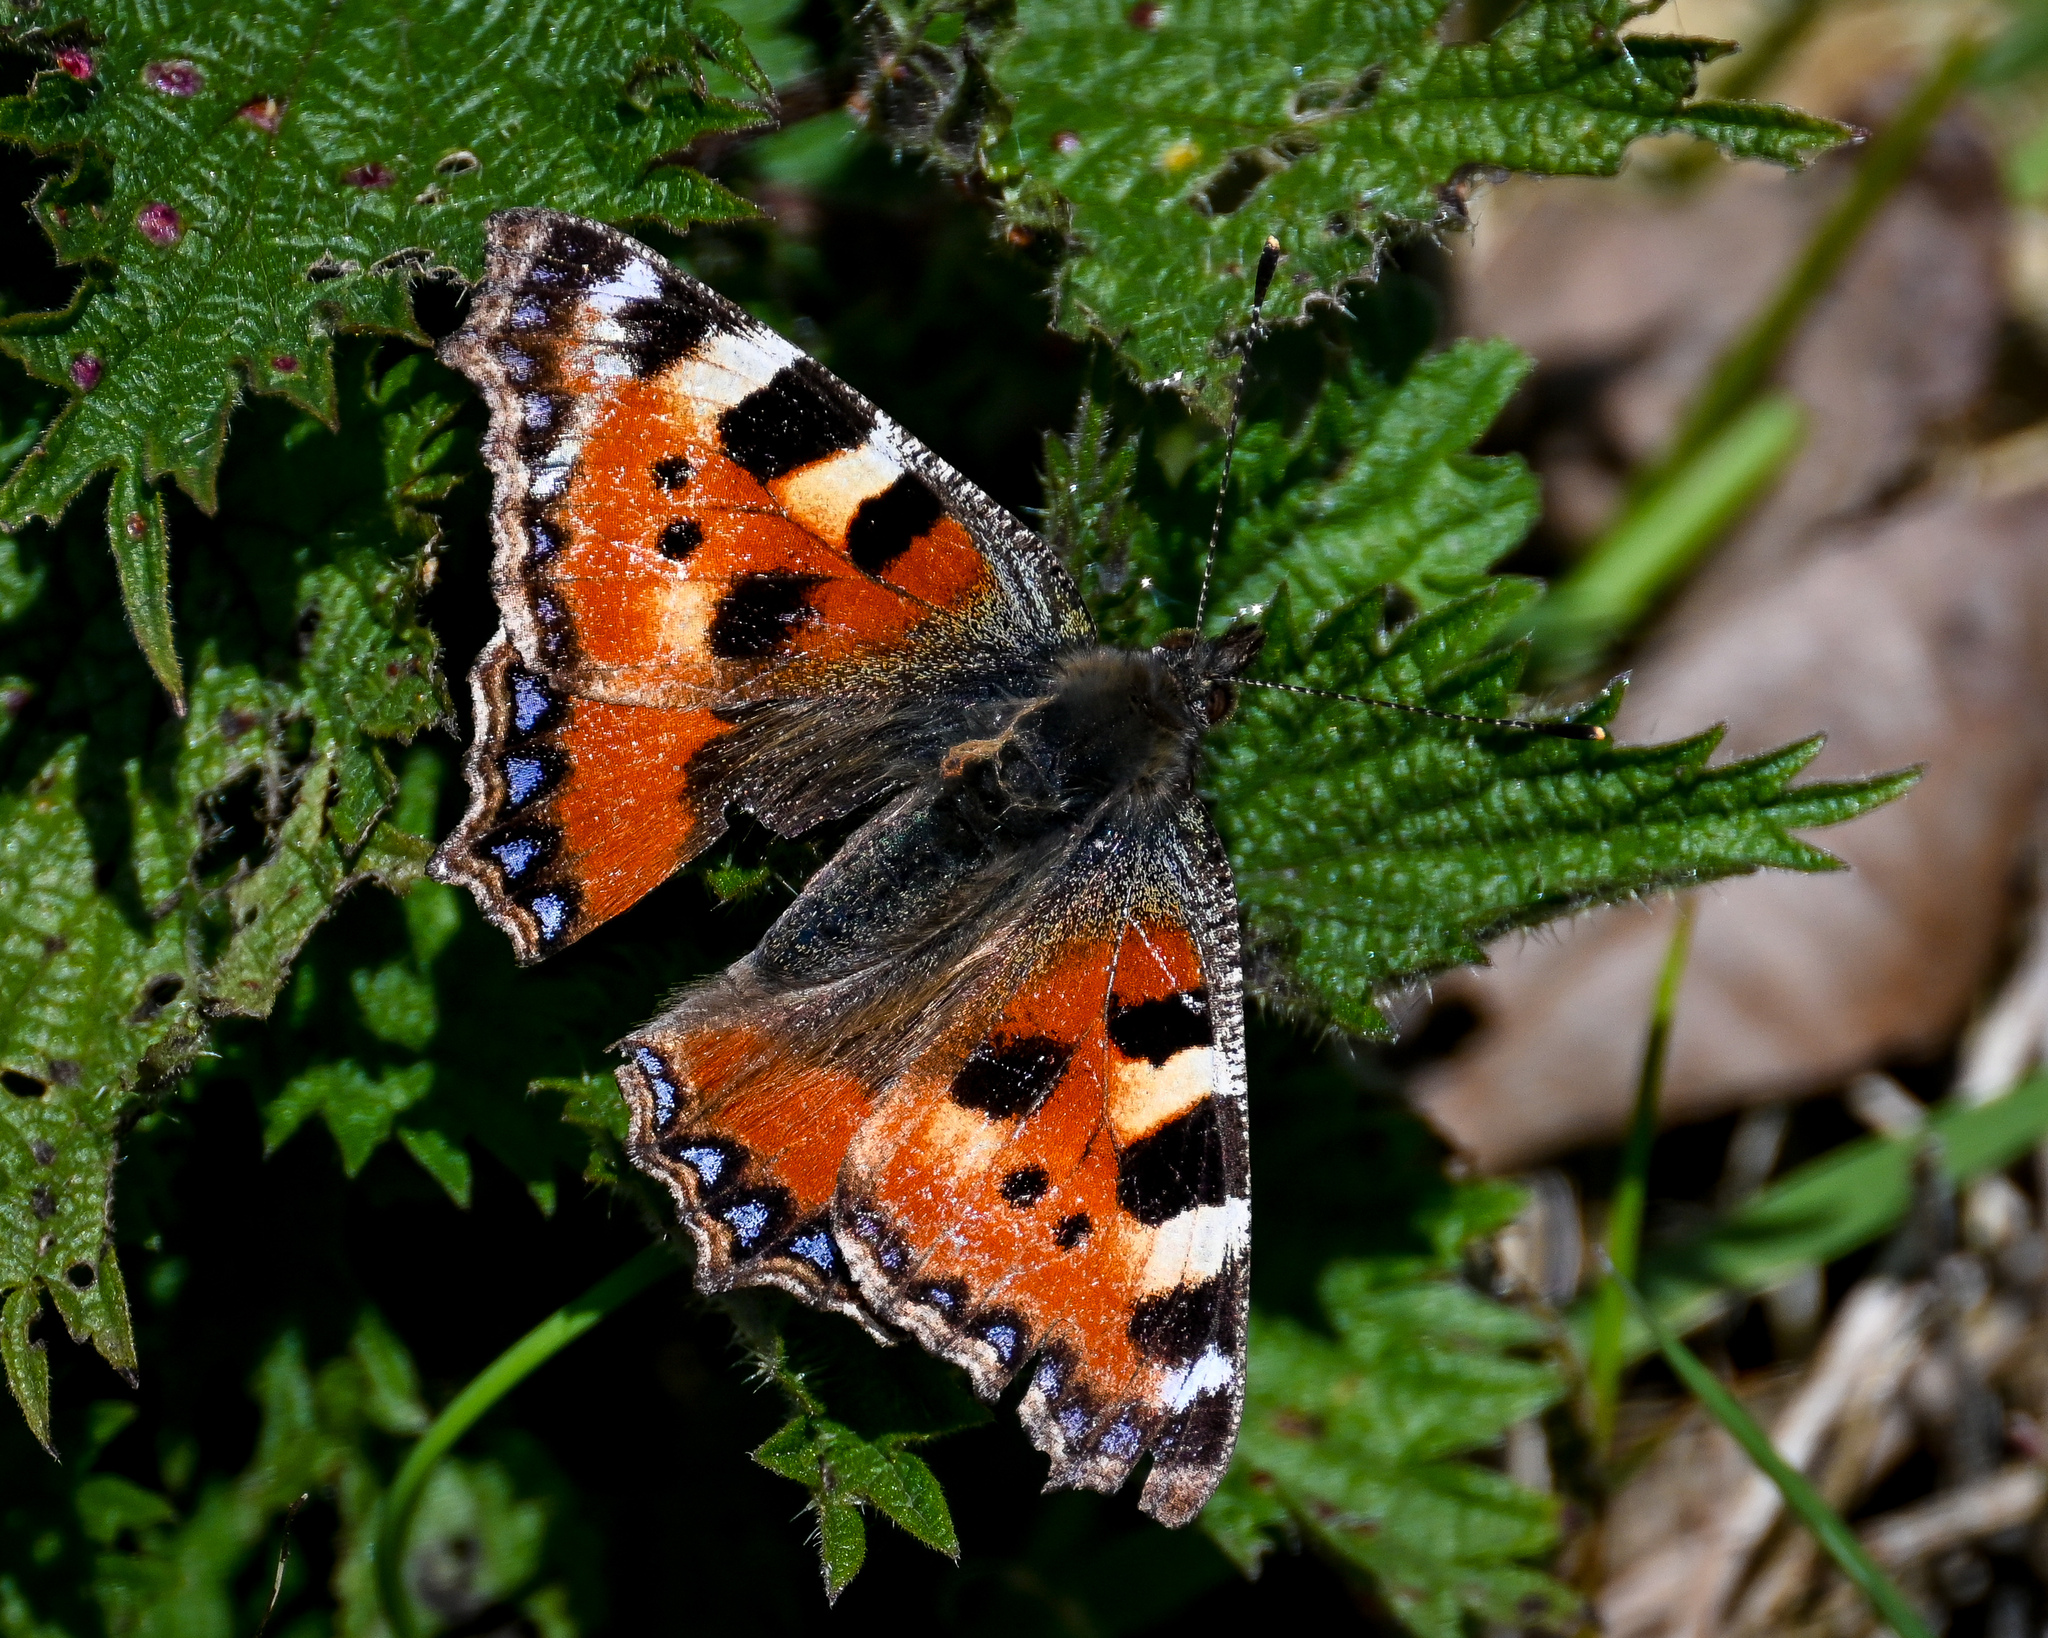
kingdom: Animalia
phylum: Arthropoda
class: Insecta
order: Lepidoptera
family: Nymphalidae
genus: Aglais
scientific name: Aglais urticae
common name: Small tortoiseshell
